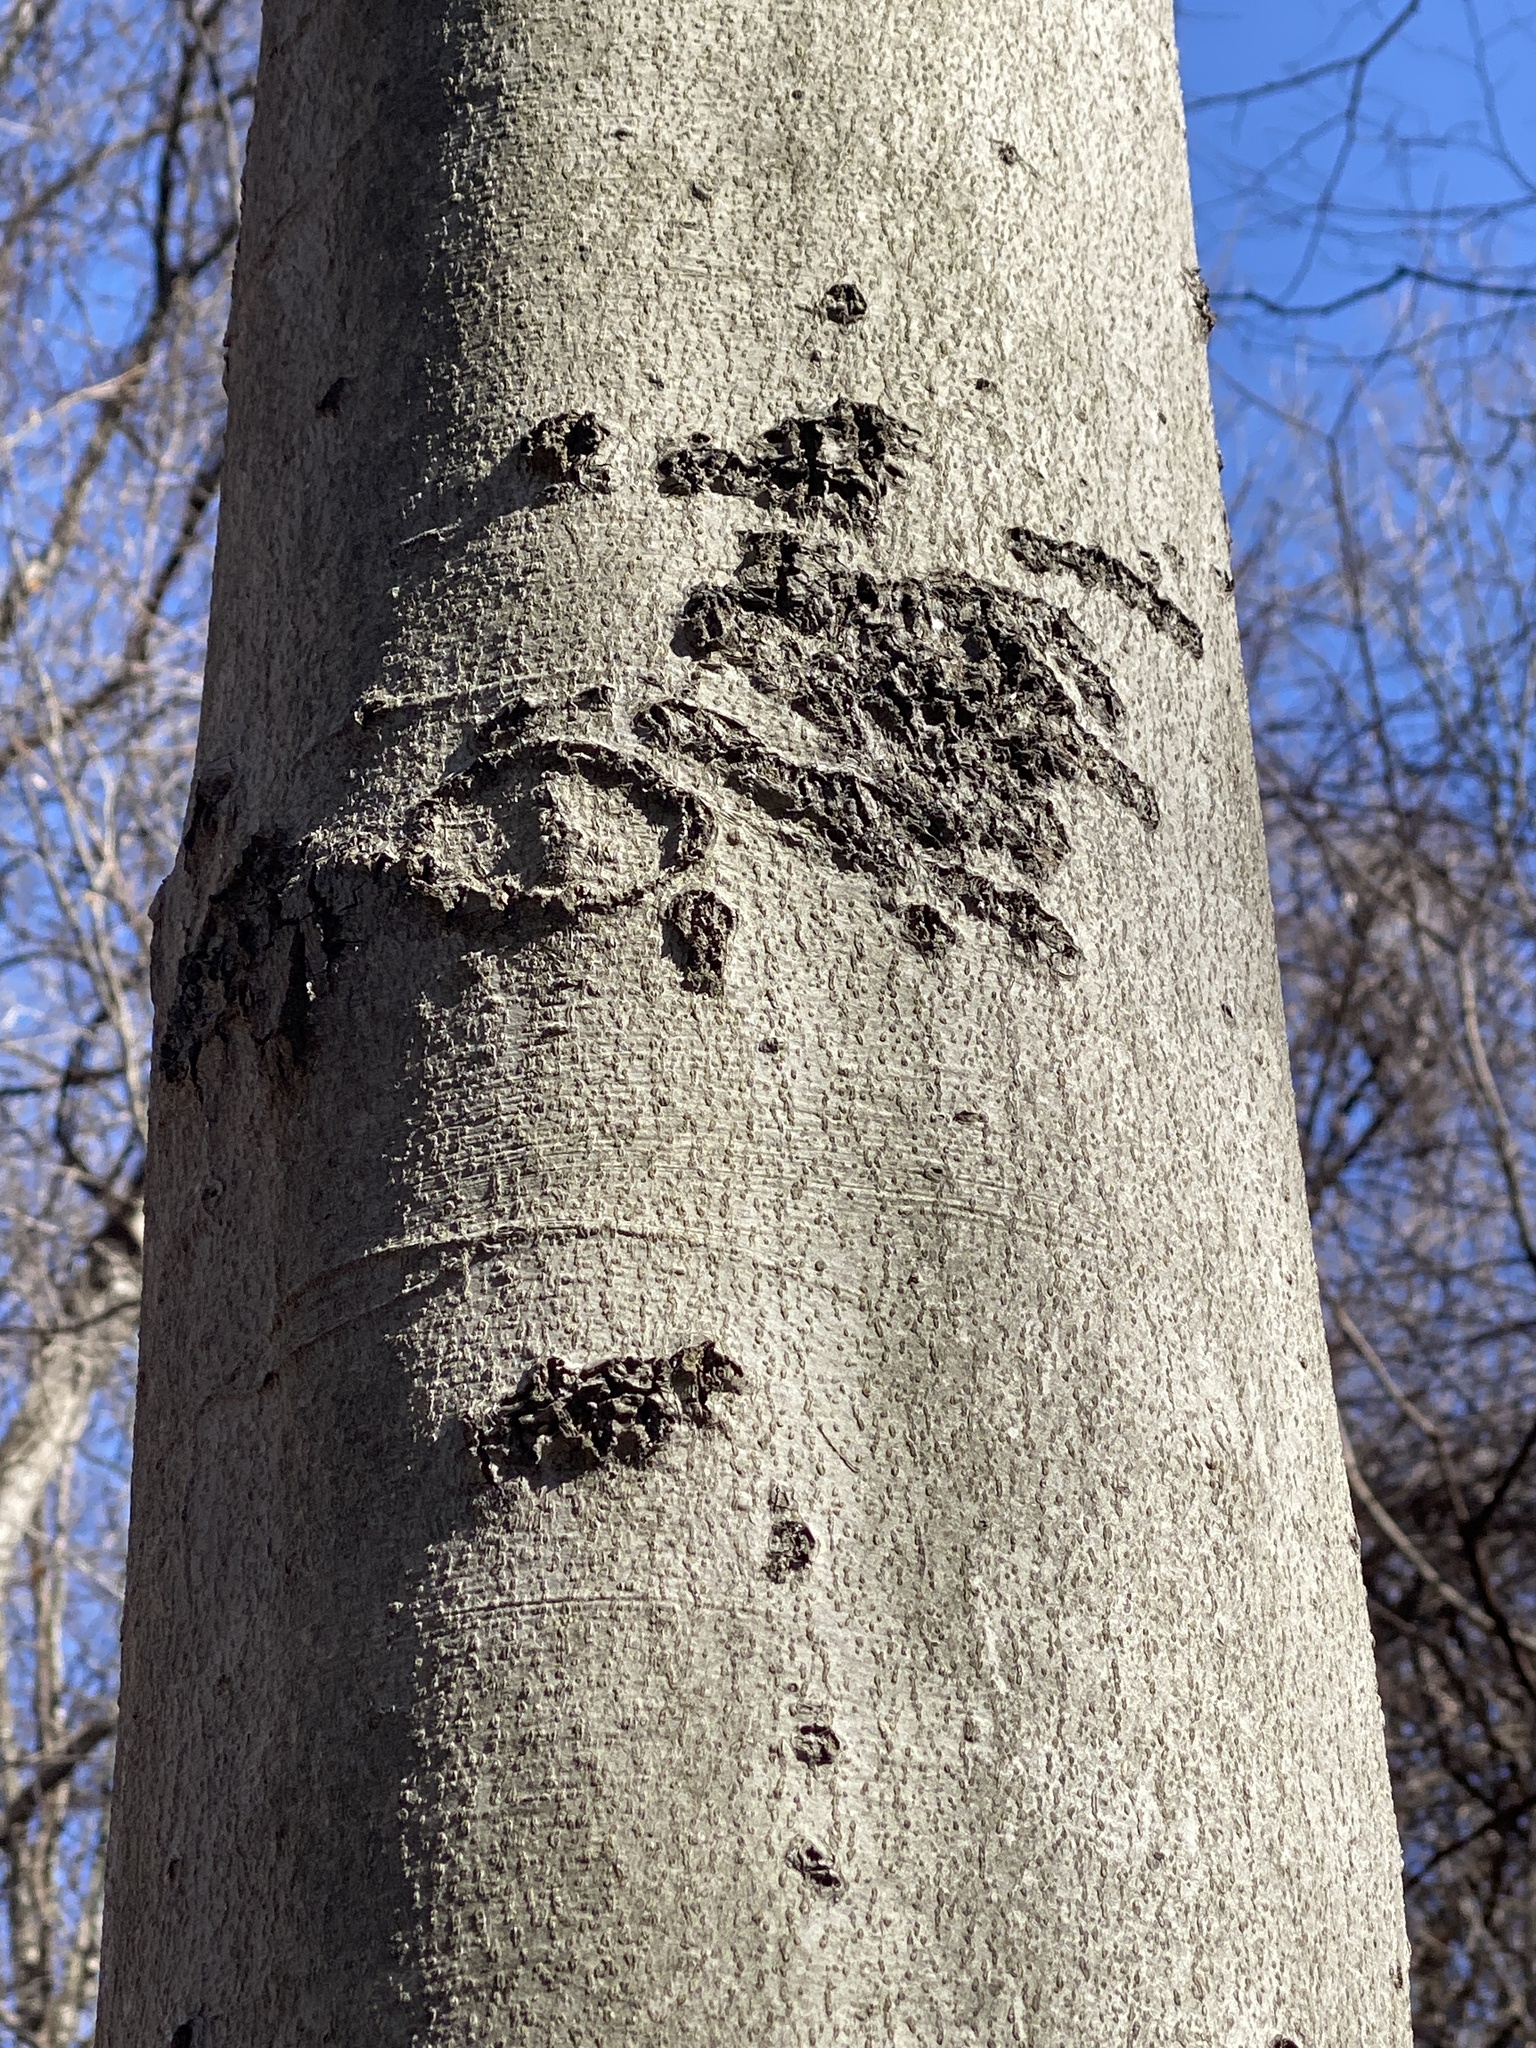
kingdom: Plantae
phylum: Tracheophyta
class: Magnoliopsida
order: Fagales
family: Fagaceae
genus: Fagus
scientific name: Fagus grandifolia
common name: American beech
